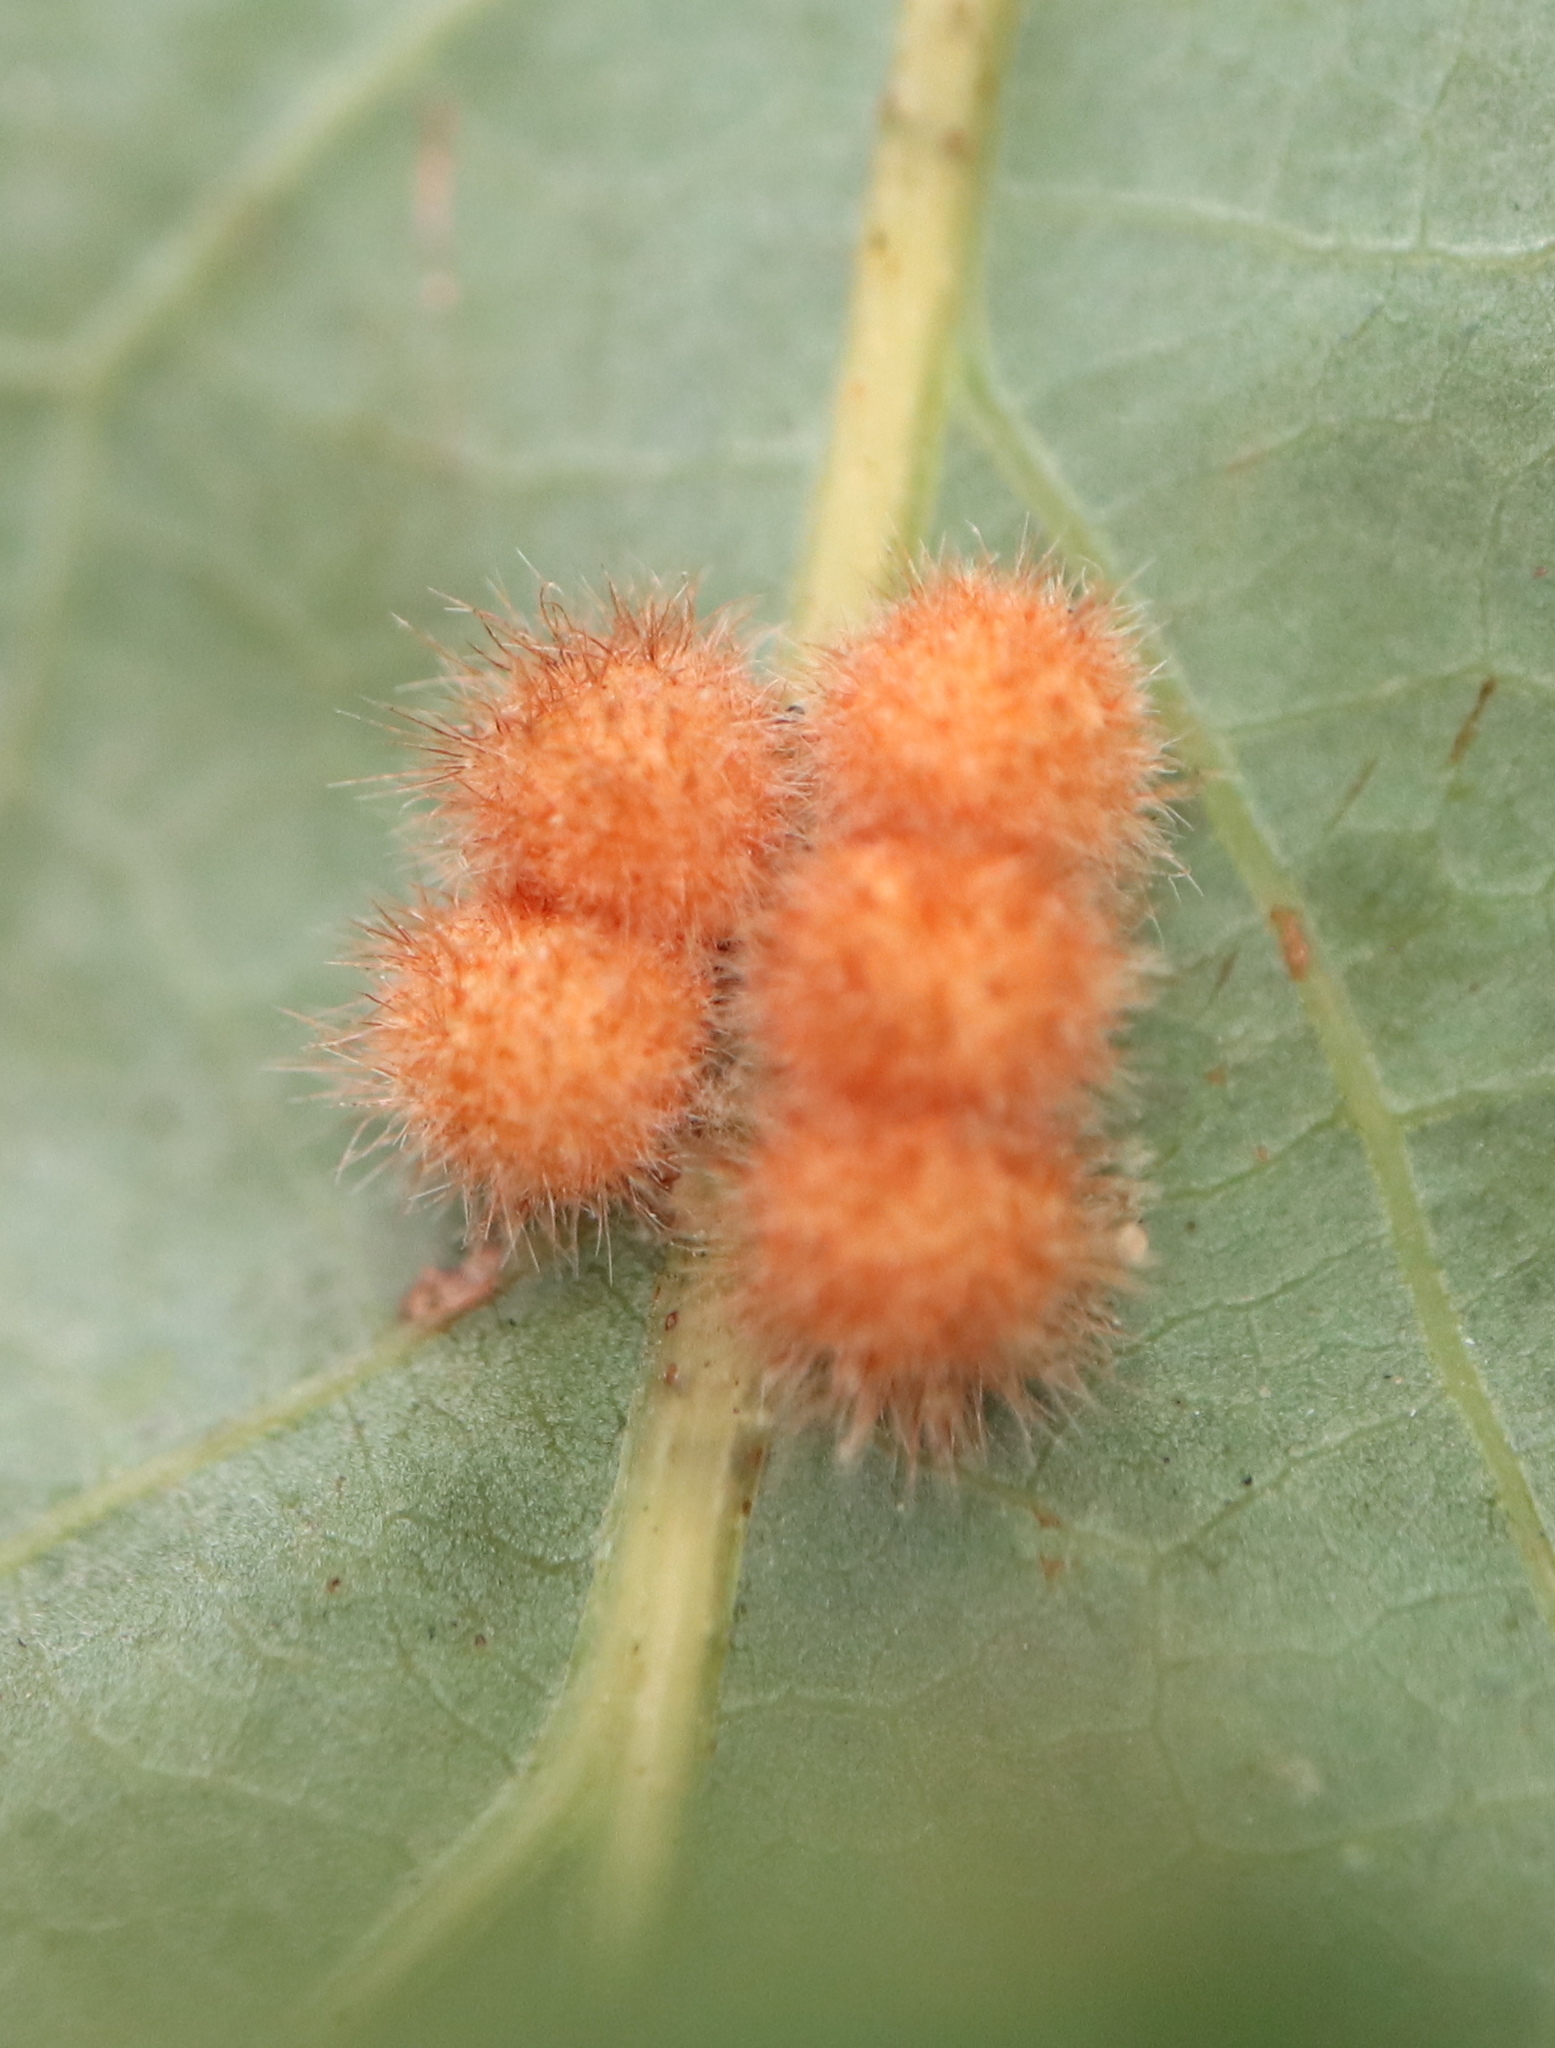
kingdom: Animalia
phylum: Arthropoda
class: Insecta
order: Hymenoptera
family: Cynipidae
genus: Andricus
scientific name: Andricus
